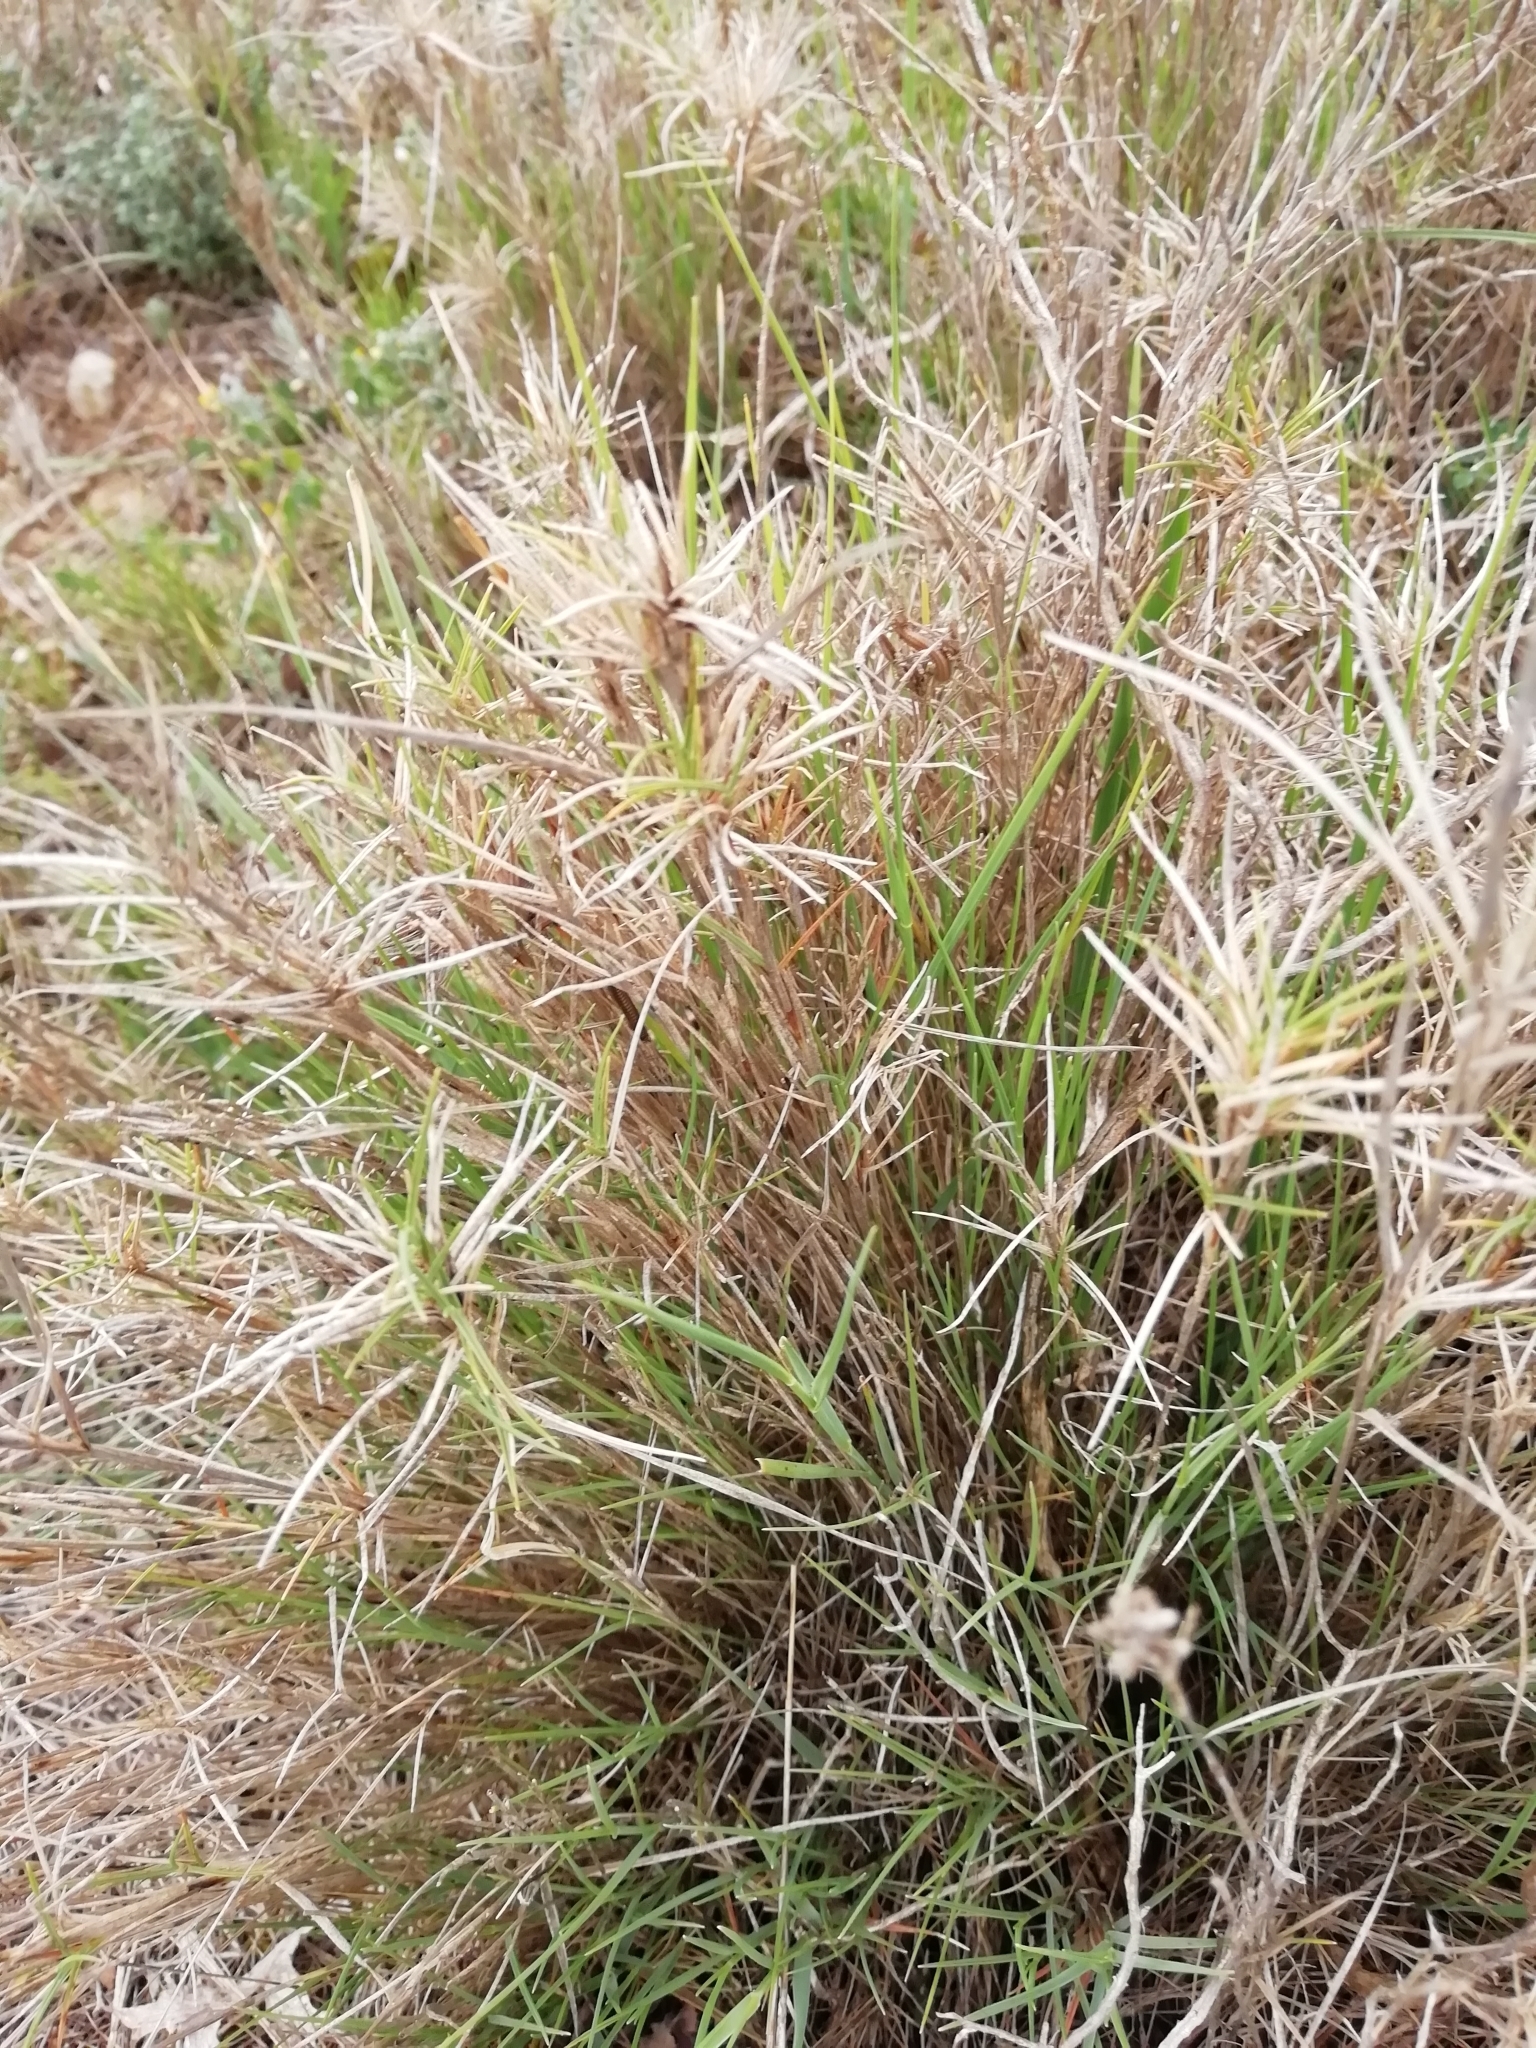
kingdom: Plantae
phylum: Tracheophyta
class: Liliopsida
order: Poales
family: Poaceae
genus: Brachypodium
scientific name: Brachypodium retusum
